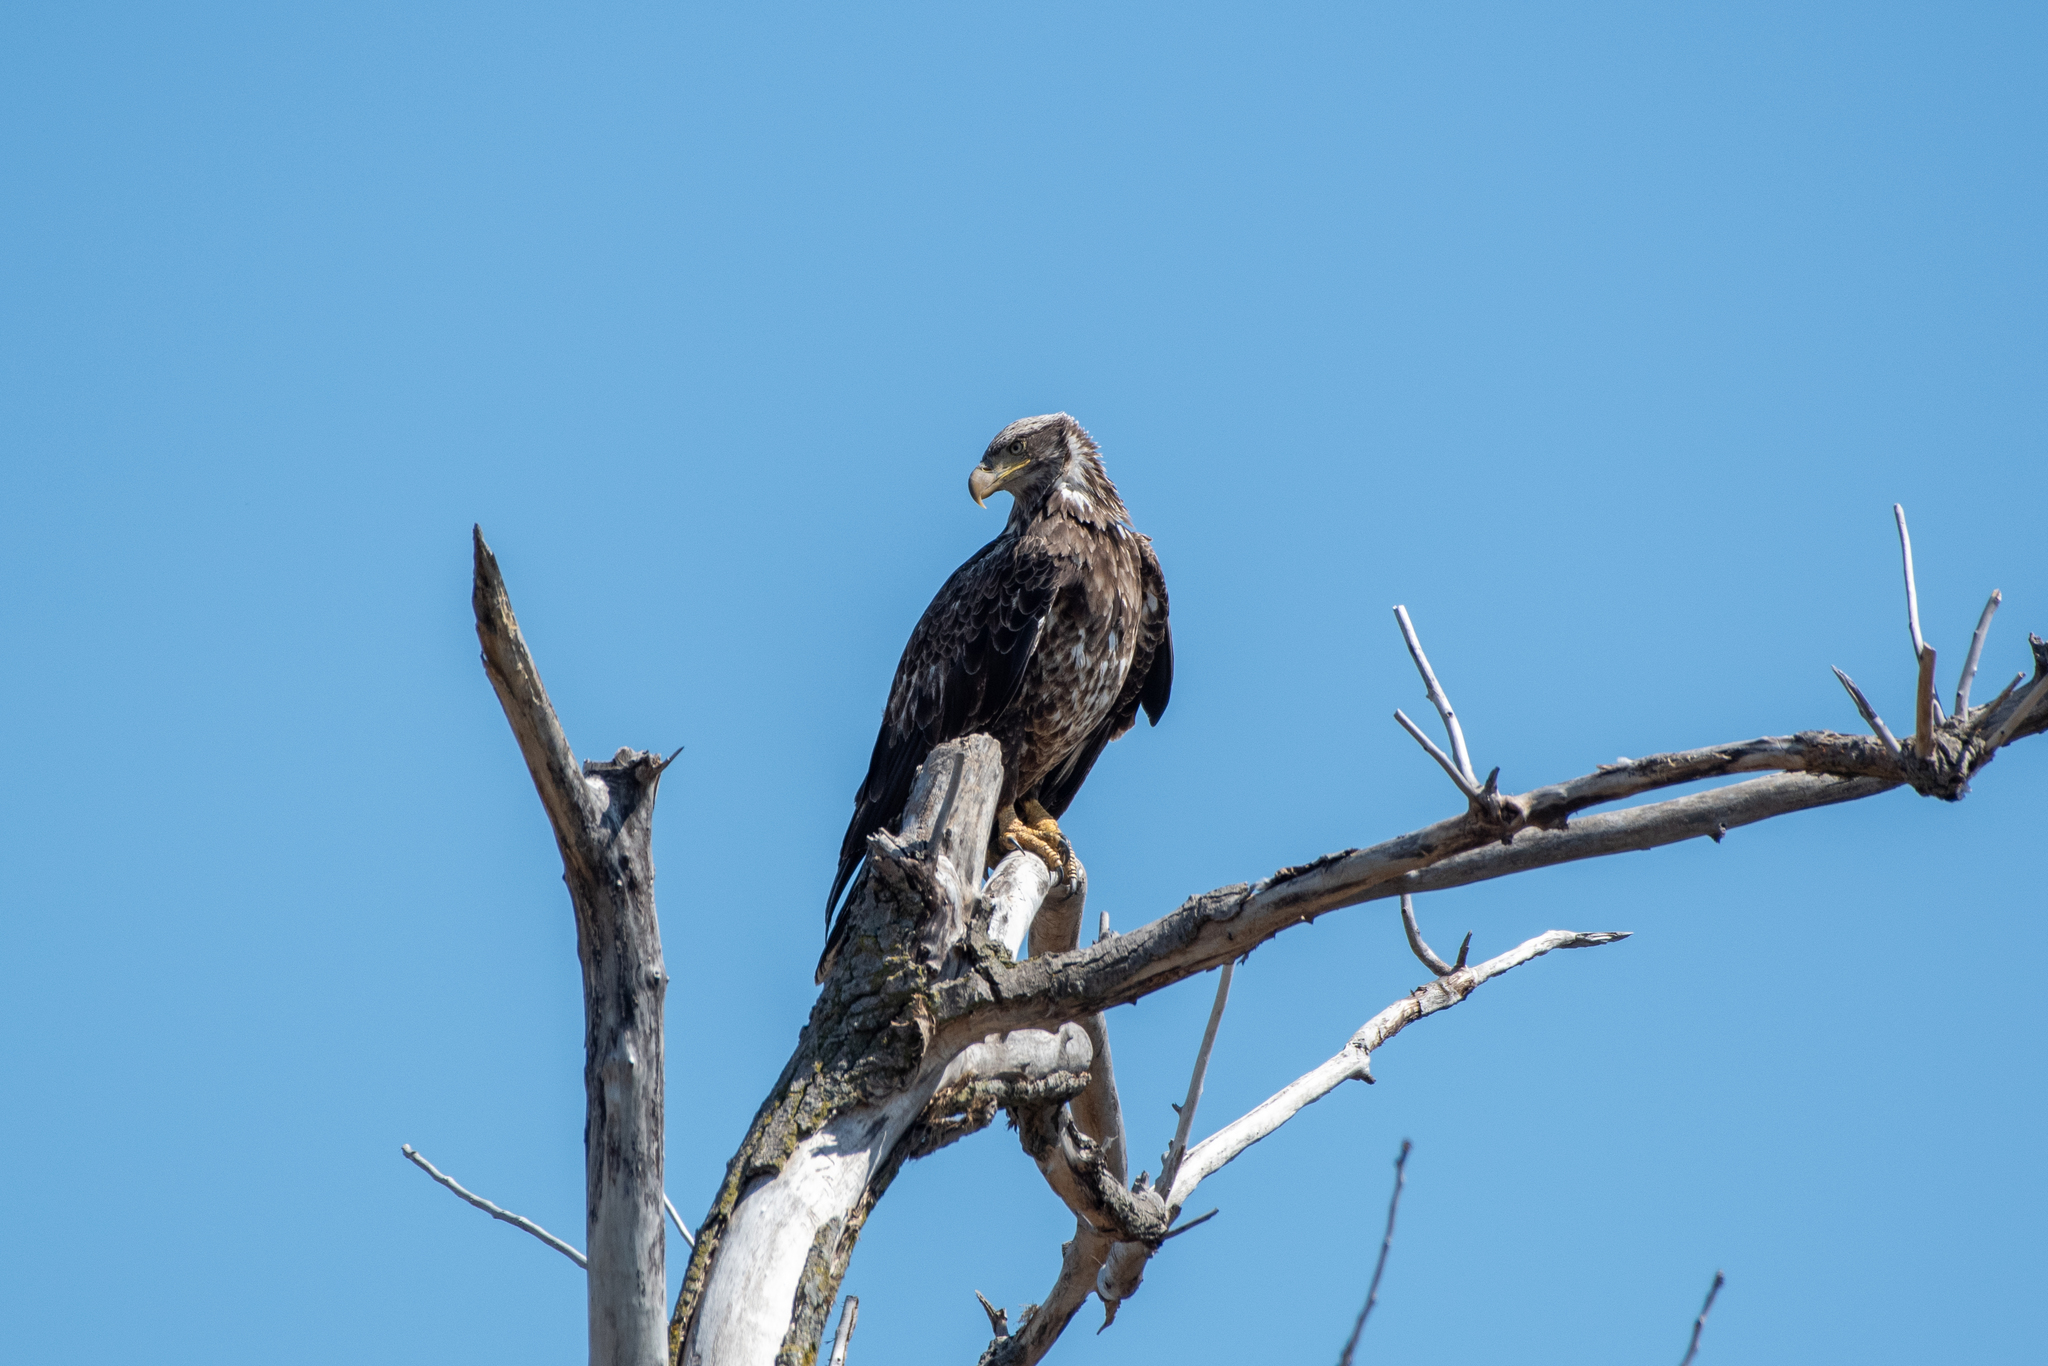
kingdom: Animalia
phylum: Chordata
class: Aves
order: Accipitriformes
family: Accipitridae
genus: Haliaeetus
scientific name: Haliaeetus leucocephalus
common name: Bald eagle
